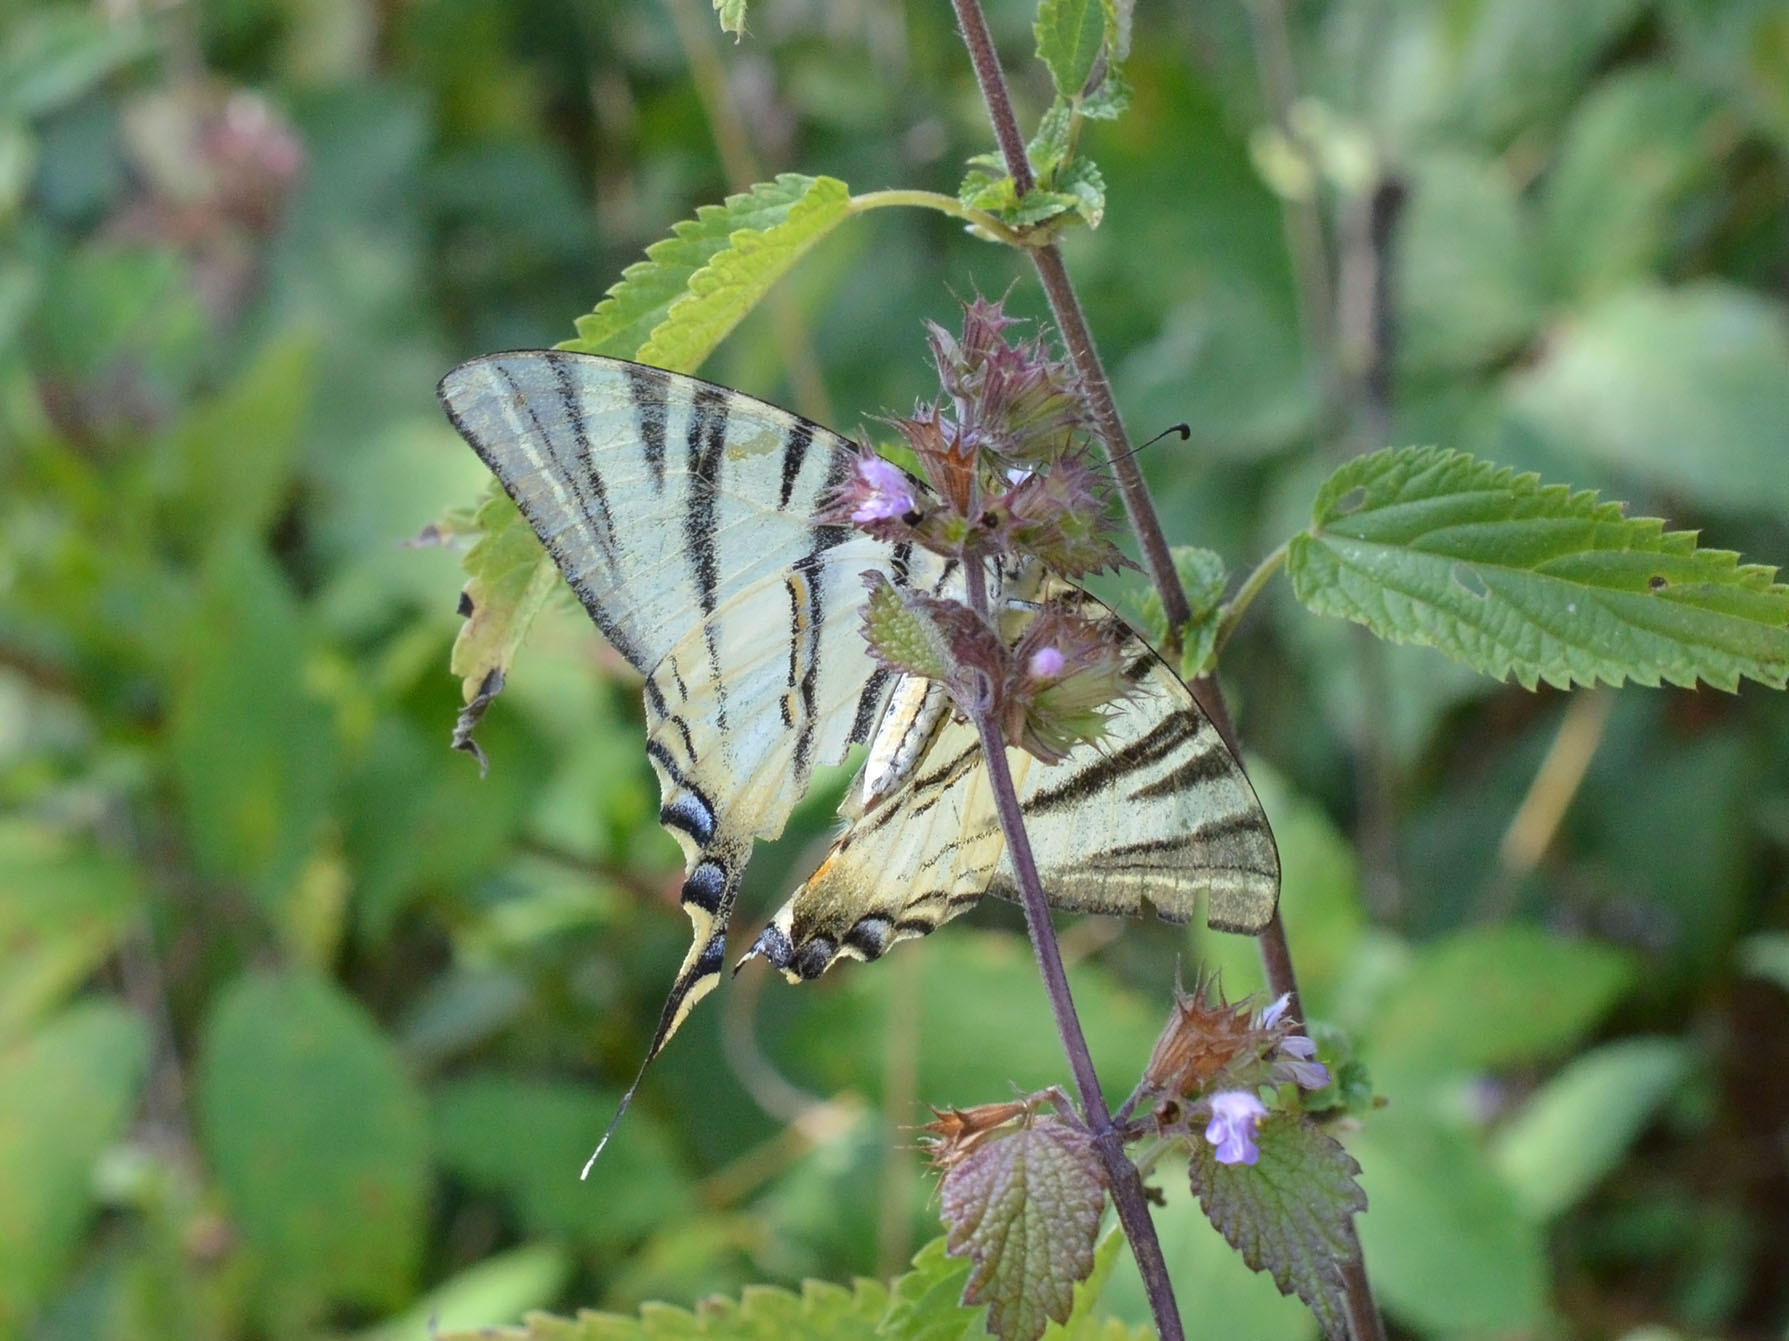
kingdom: Animalia
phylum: Arthropoda
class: Insecta
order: Lepidoptera
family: Papilionidae
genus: Iphiclides
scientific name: Iphiclides podalirius
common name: Scarce swallowtail
